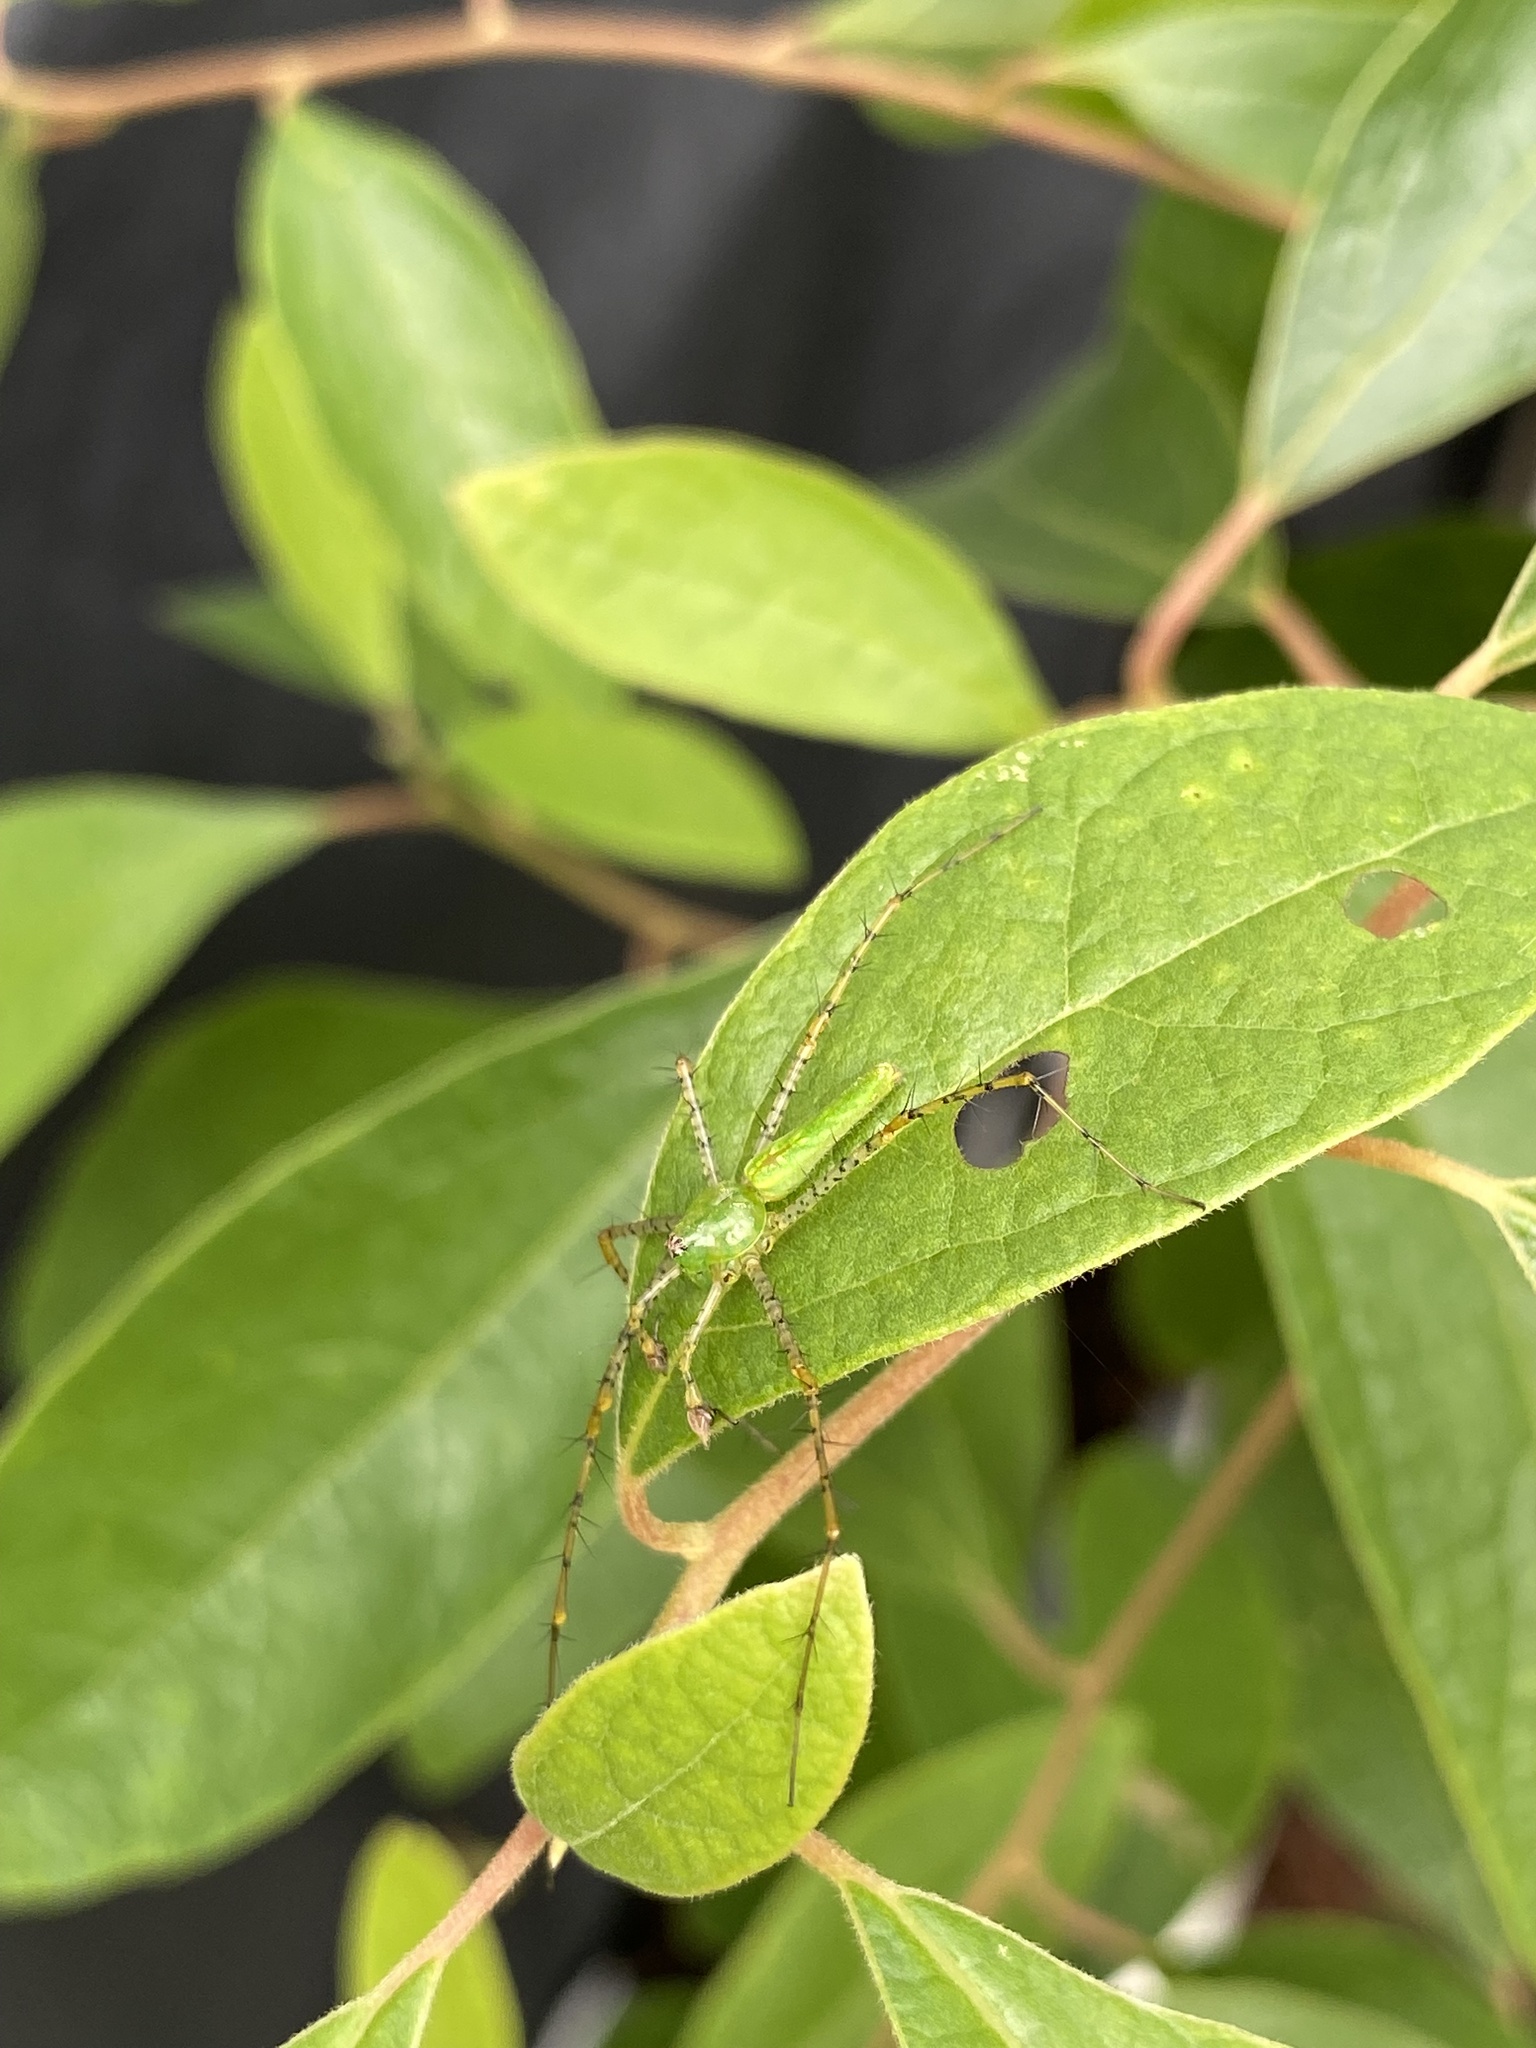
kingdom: Animalia
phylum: Arthropoda
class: Arachnida
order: Araneae
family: Oxyopidae
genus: Peucetia
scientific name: Peucetia viridans
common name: Lynx spiders
